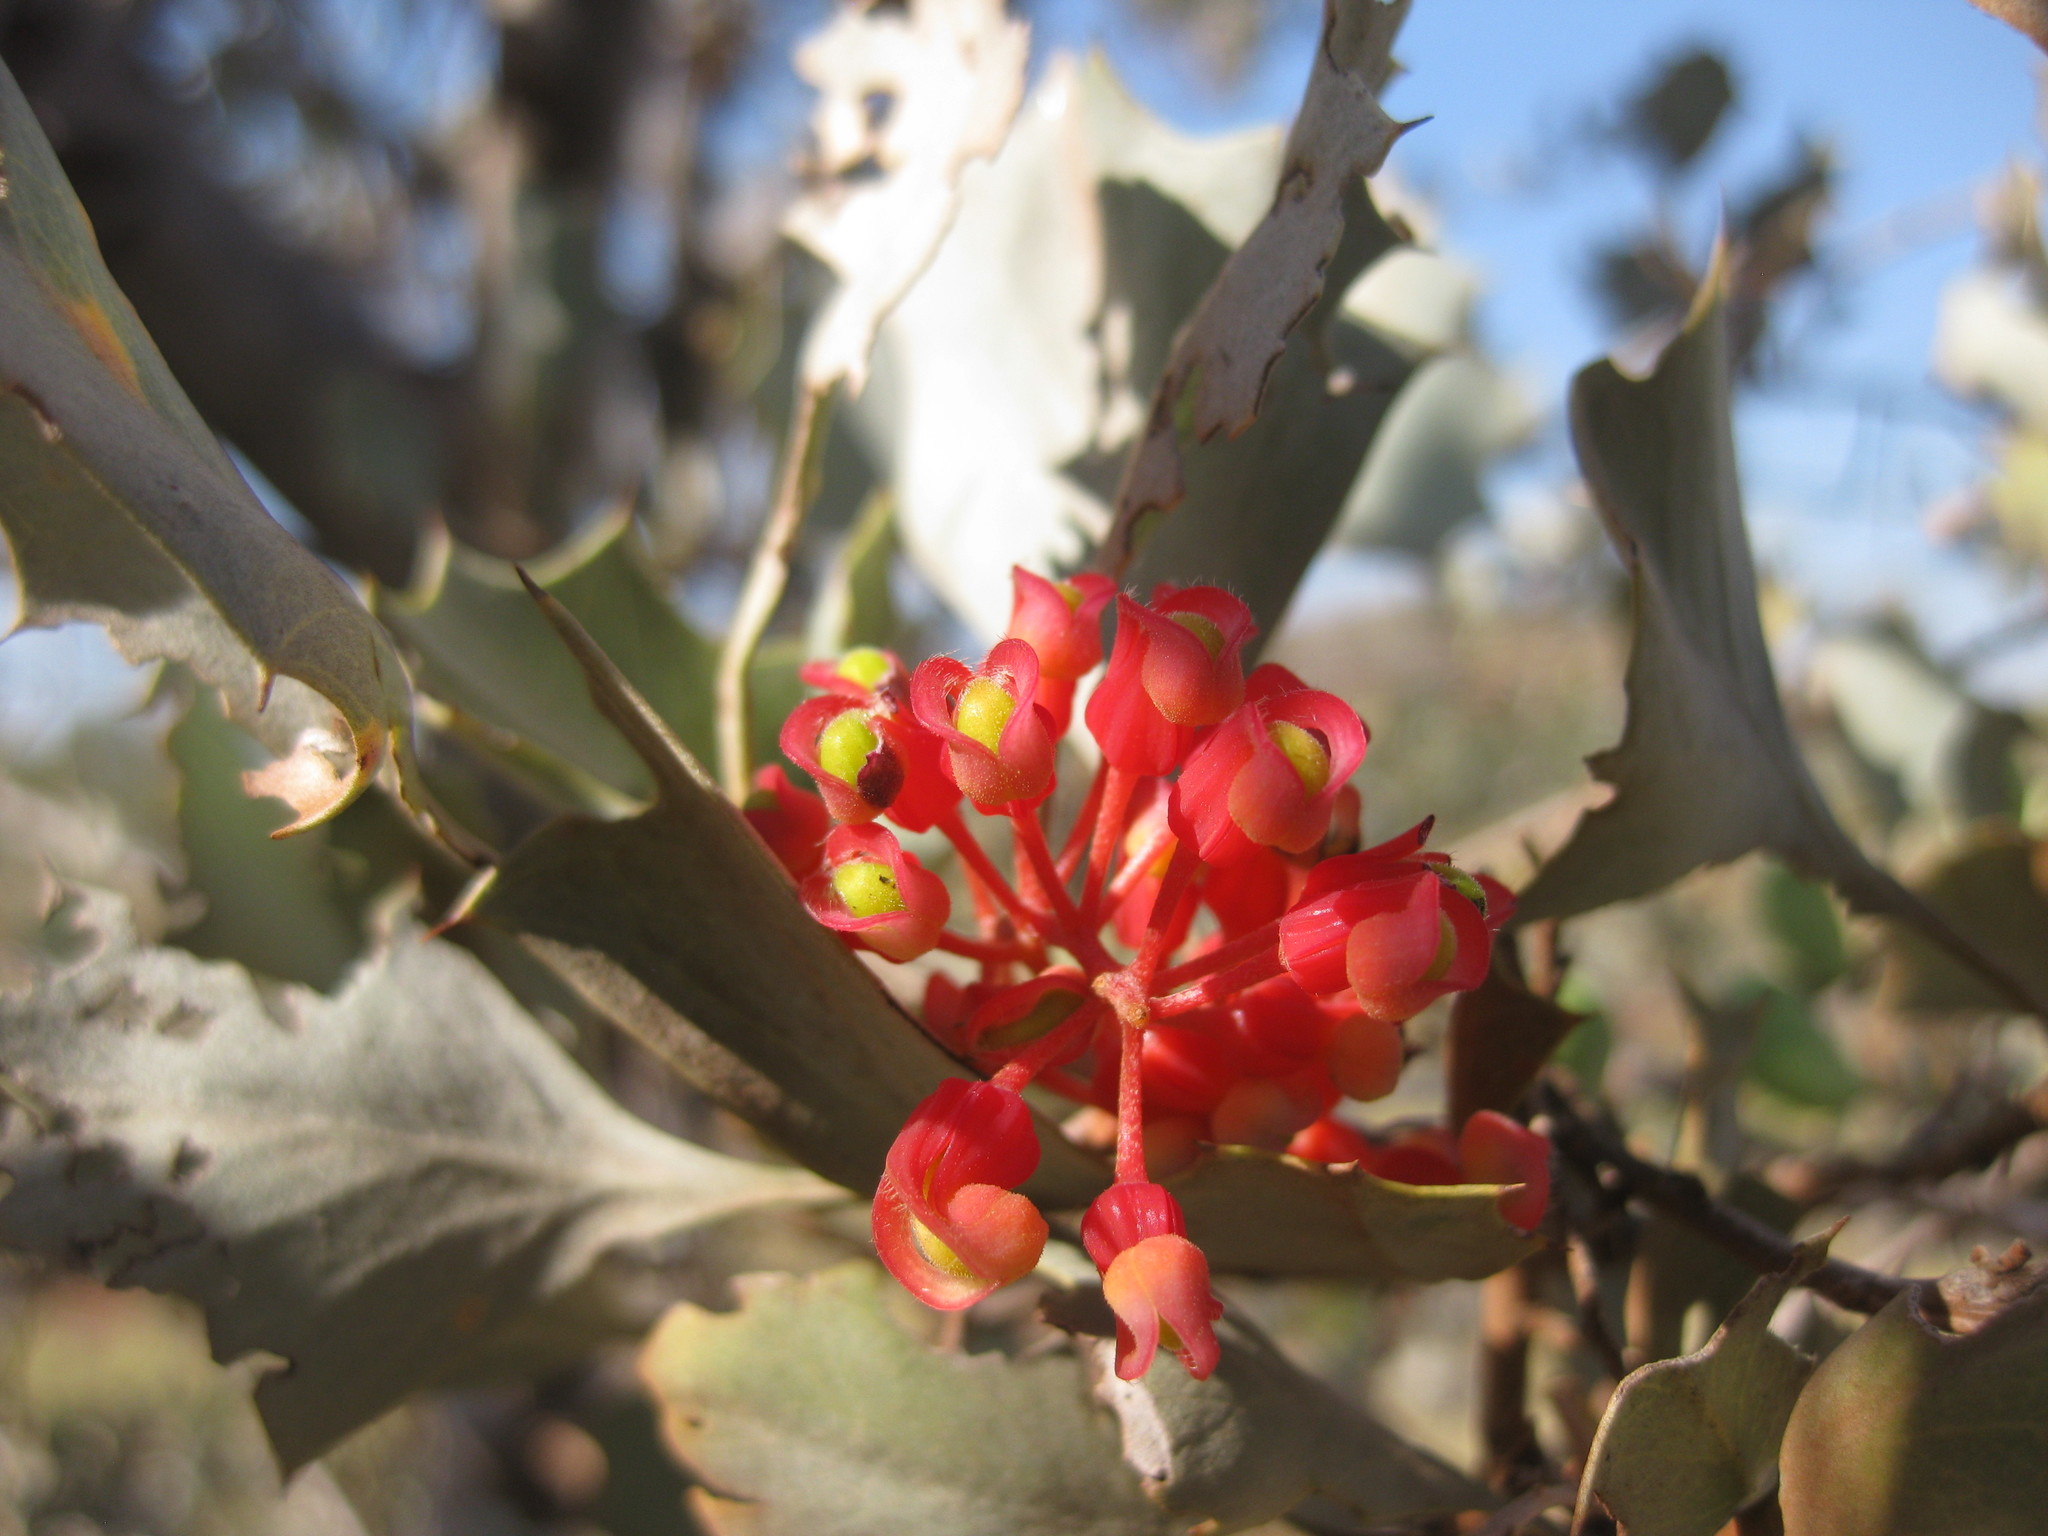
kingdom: Plantae
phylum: Tracheophyta
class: Magnoliopsida
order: Proteales
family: Proteaceae
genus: Grevillea
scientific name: Grevillea wickhamii
